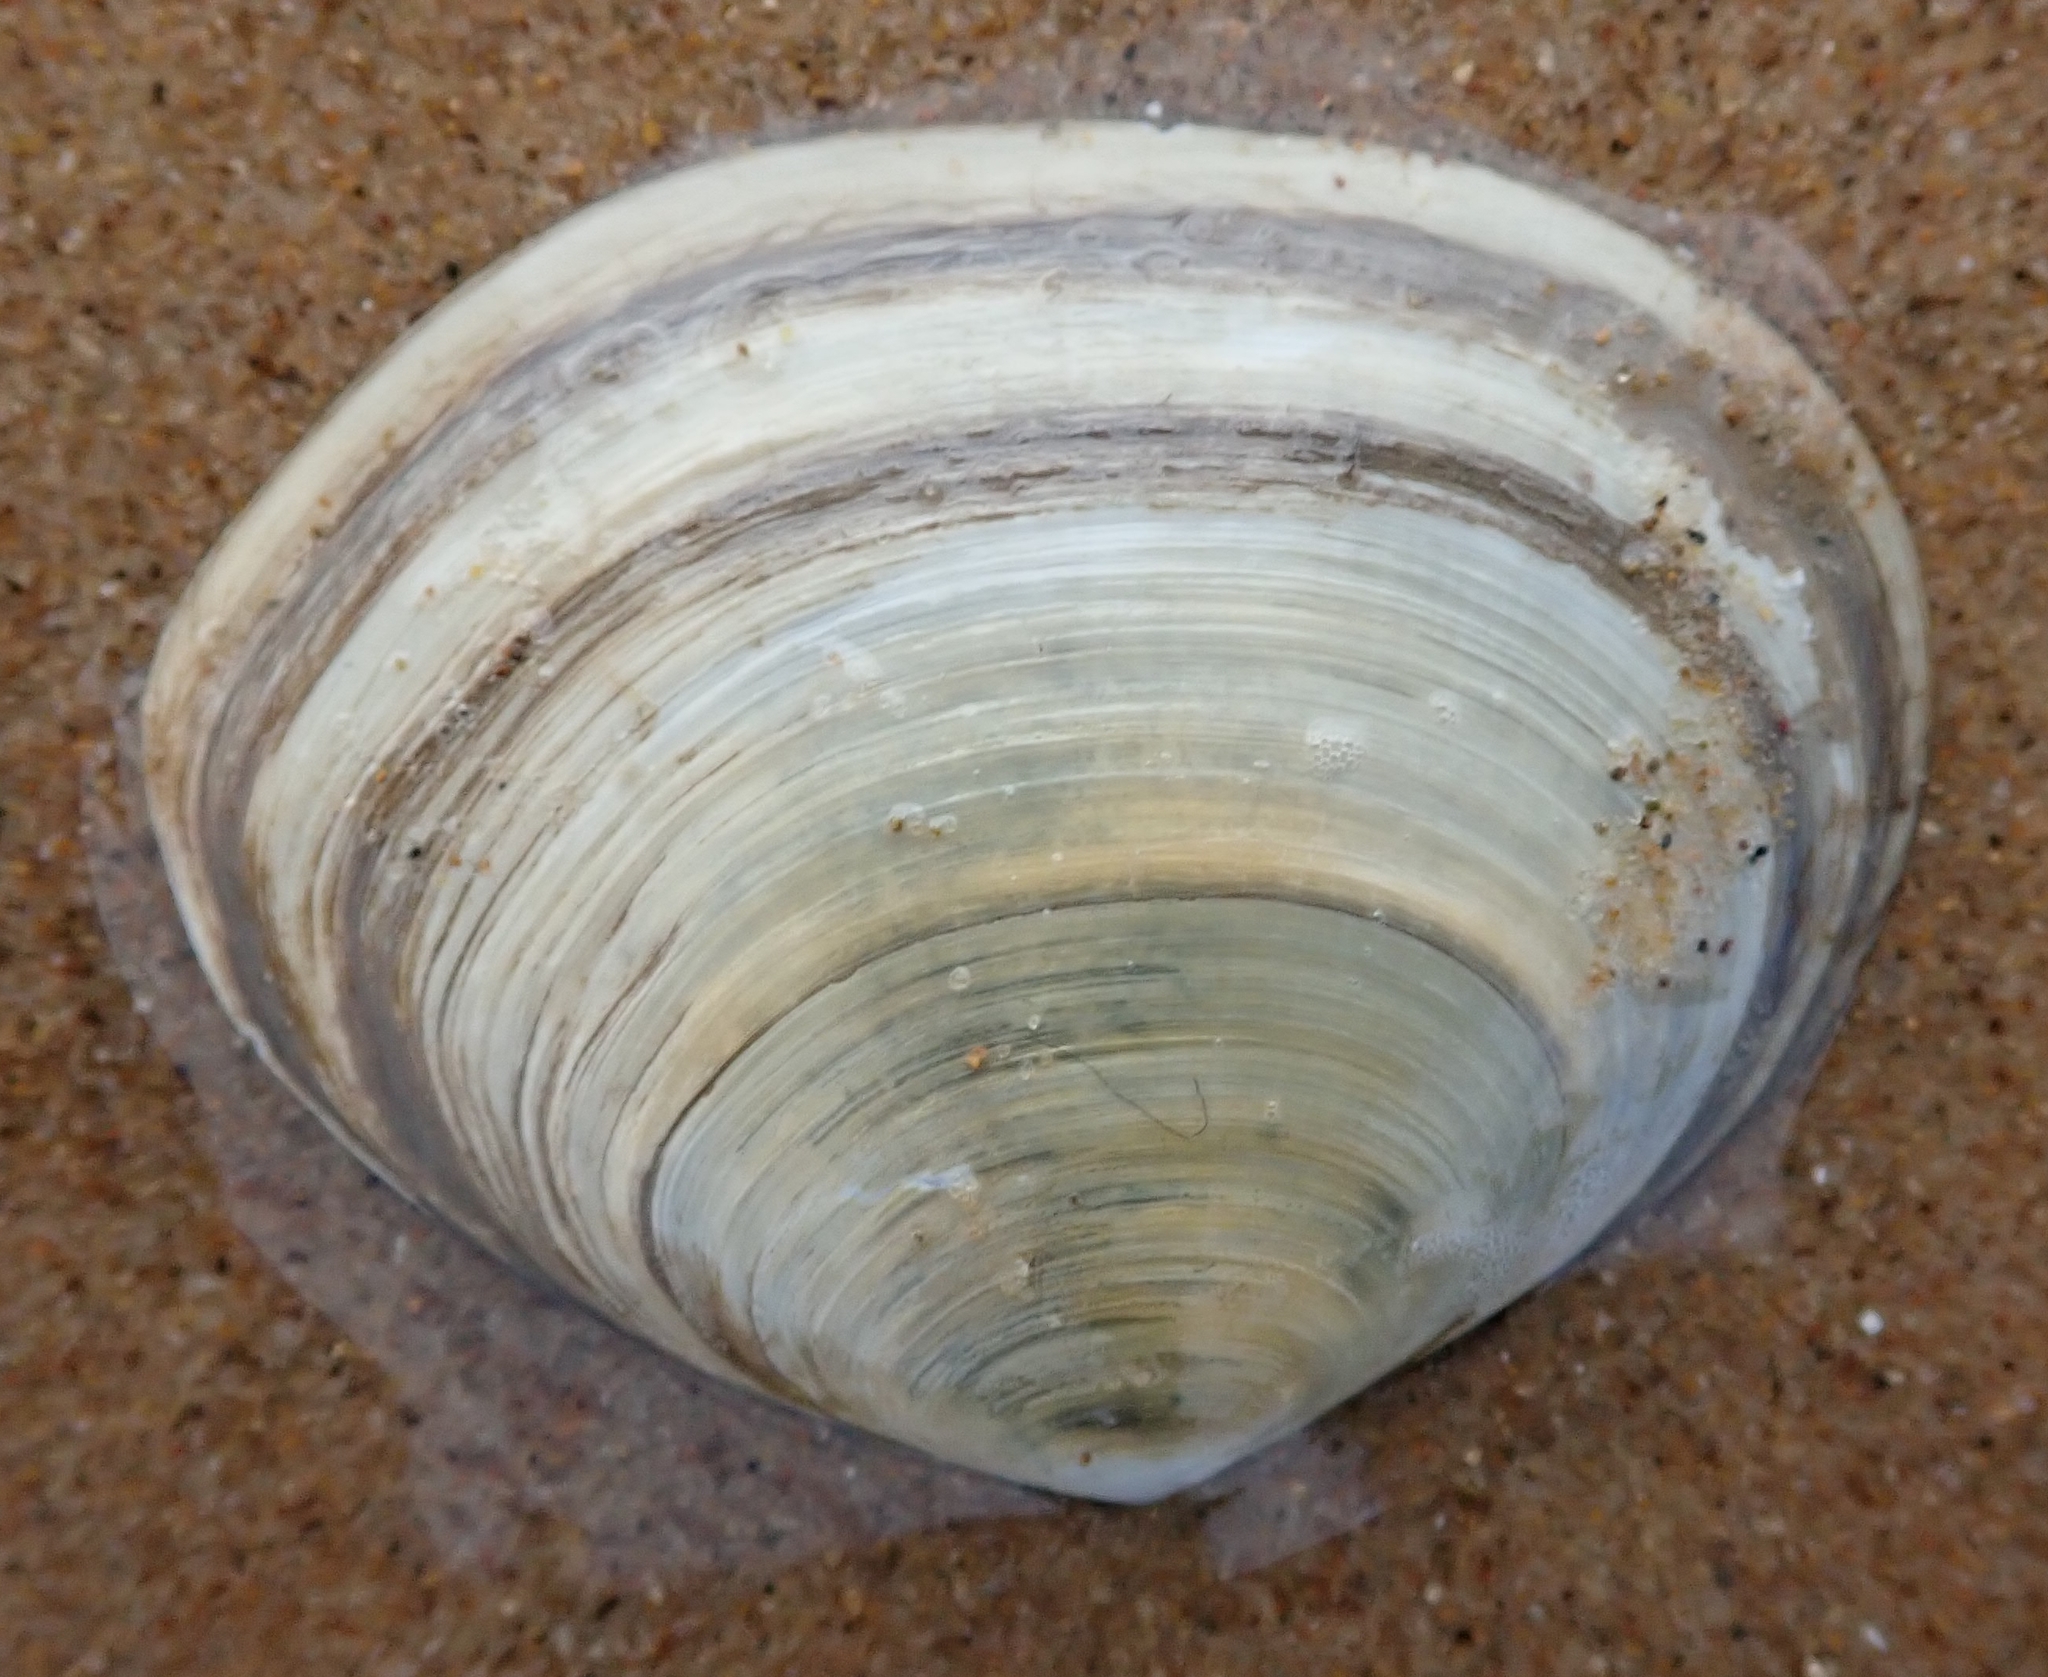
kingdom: Animalia
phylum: Mollusca
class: Bivalvia
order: Cardiida
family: Semelidae
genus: Scrobicularia
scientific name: Scrobicularia plana
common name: Peppery furrow shell
